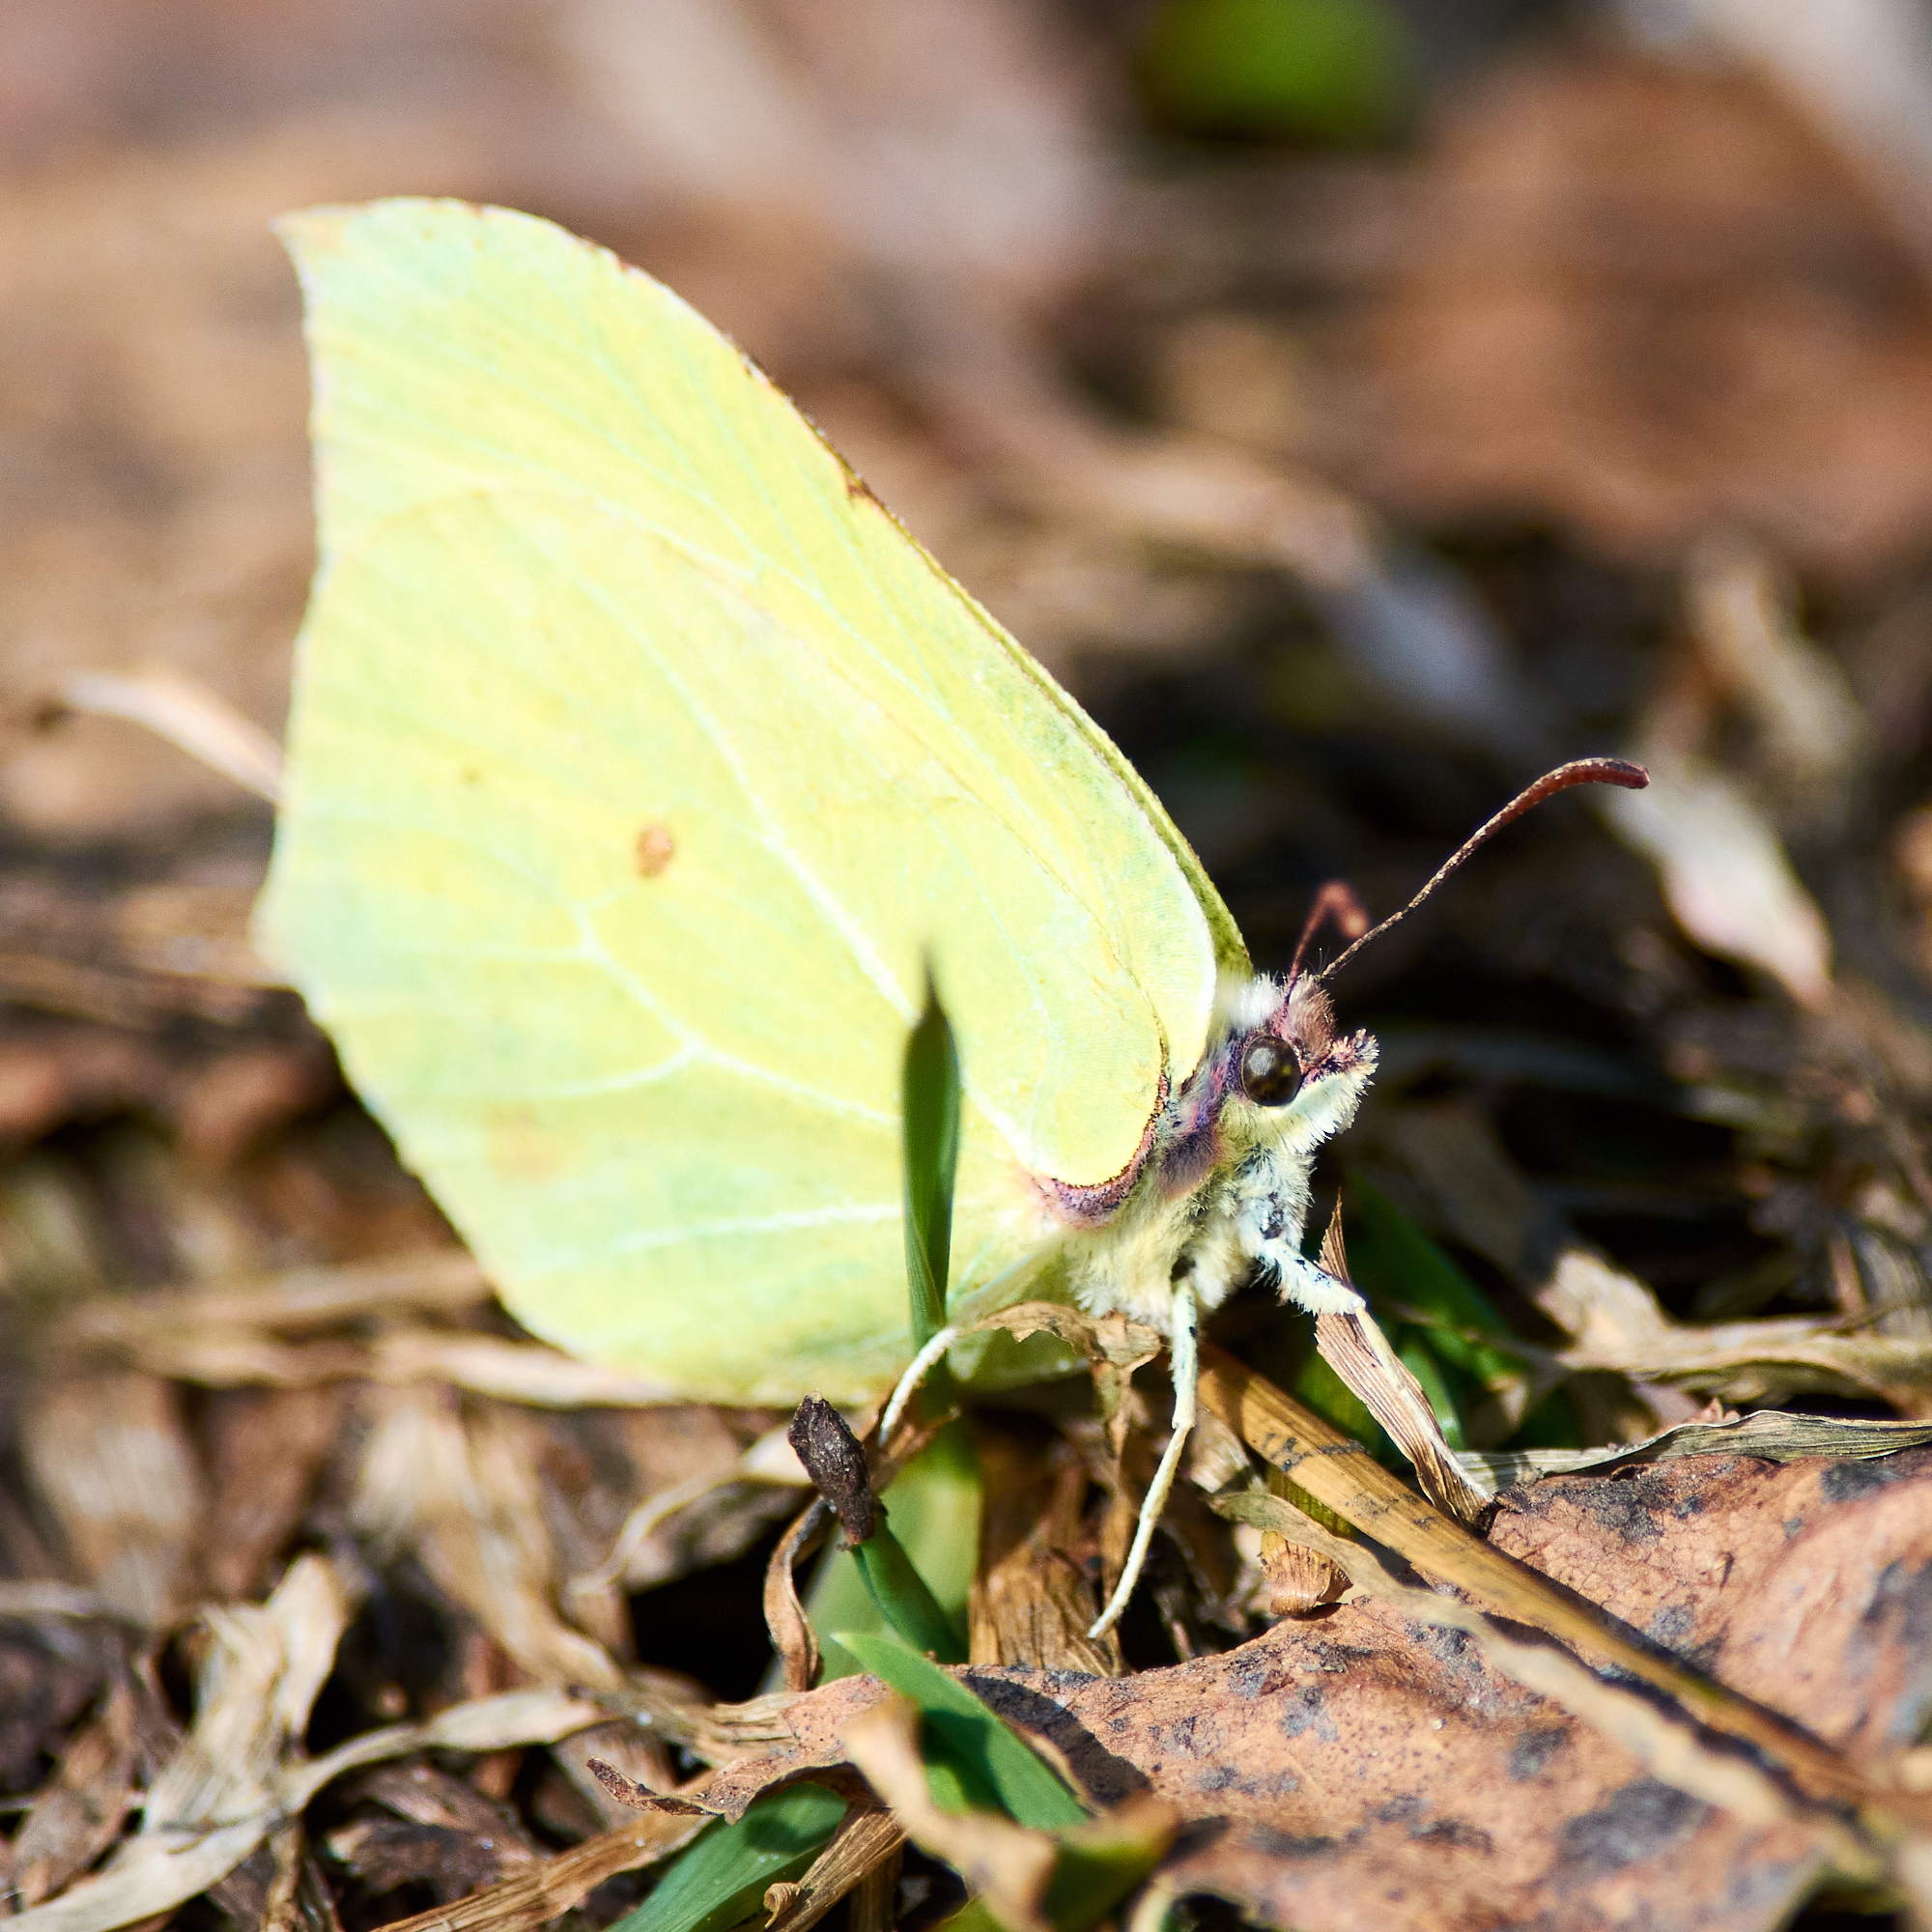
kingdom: Animalia
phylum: Arthropoda
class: Insecta
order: Lepidoptera
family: Pieridae
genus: Gonepteryx
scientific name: Gonepteryx rhamni
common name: Brimstone
